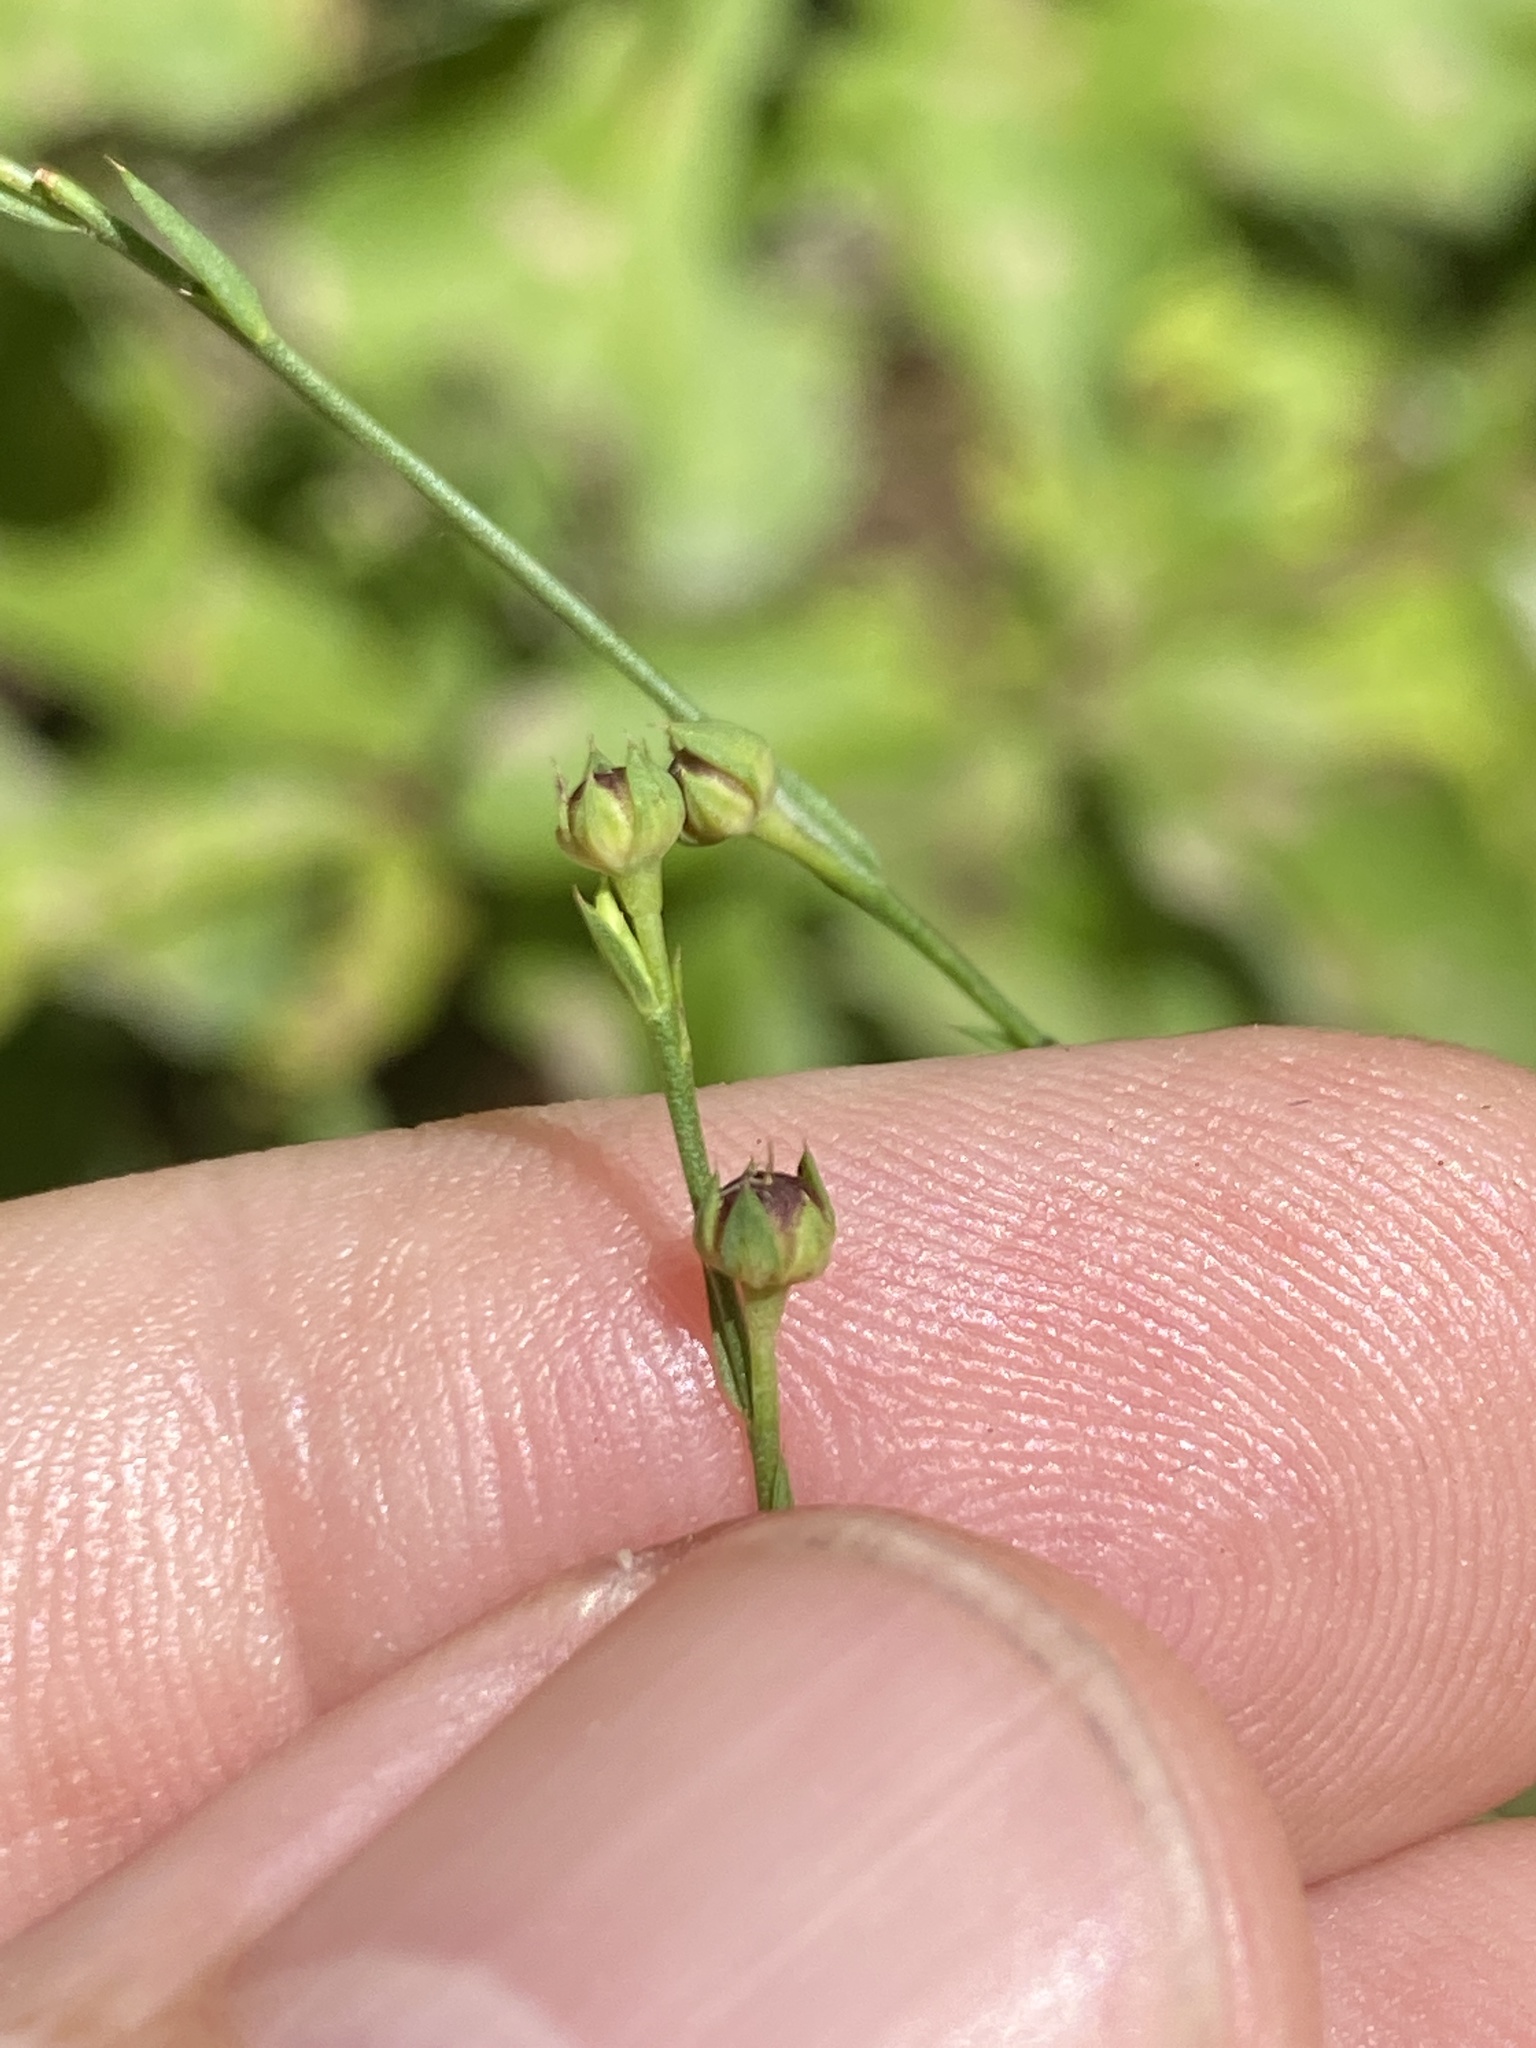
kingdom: Plantae
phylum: Tracheophyta
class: Magnoliopsida
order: Malpighiales
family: Linaceae
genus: Linum
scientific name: Linum virginianum
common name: Slender yellow flax
